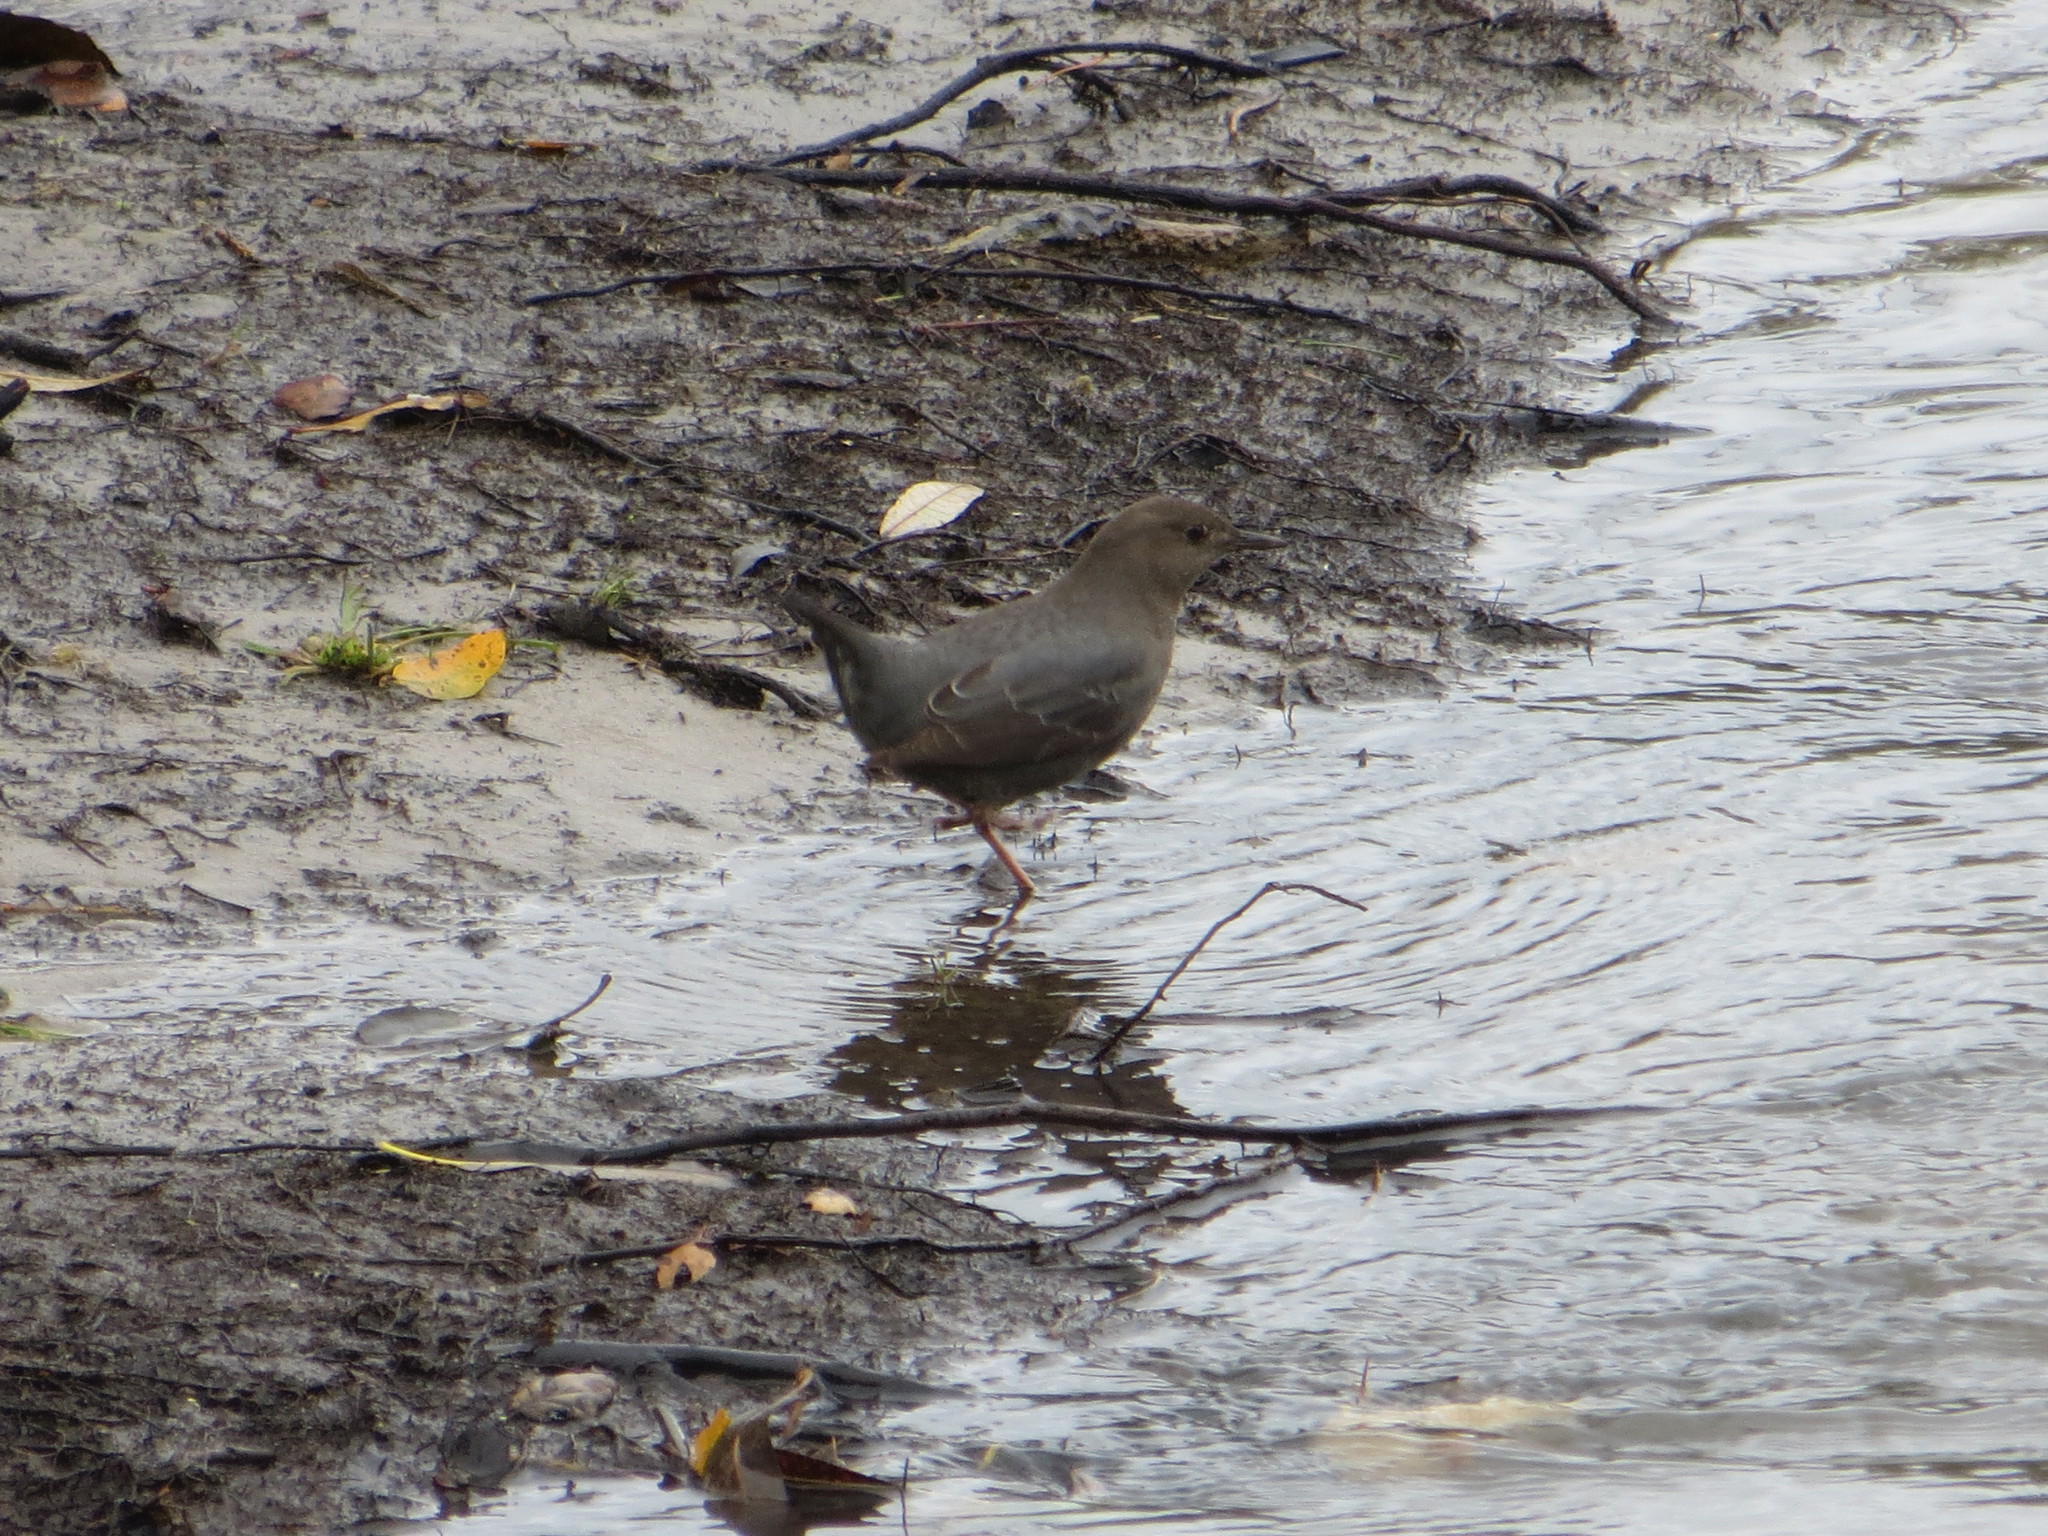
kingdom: Animalia
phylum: Chordata
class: Aves
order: Passeriformes
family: Cinclidae
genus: Cinclus
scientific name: Cinclus mexicanus
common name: American dipper
